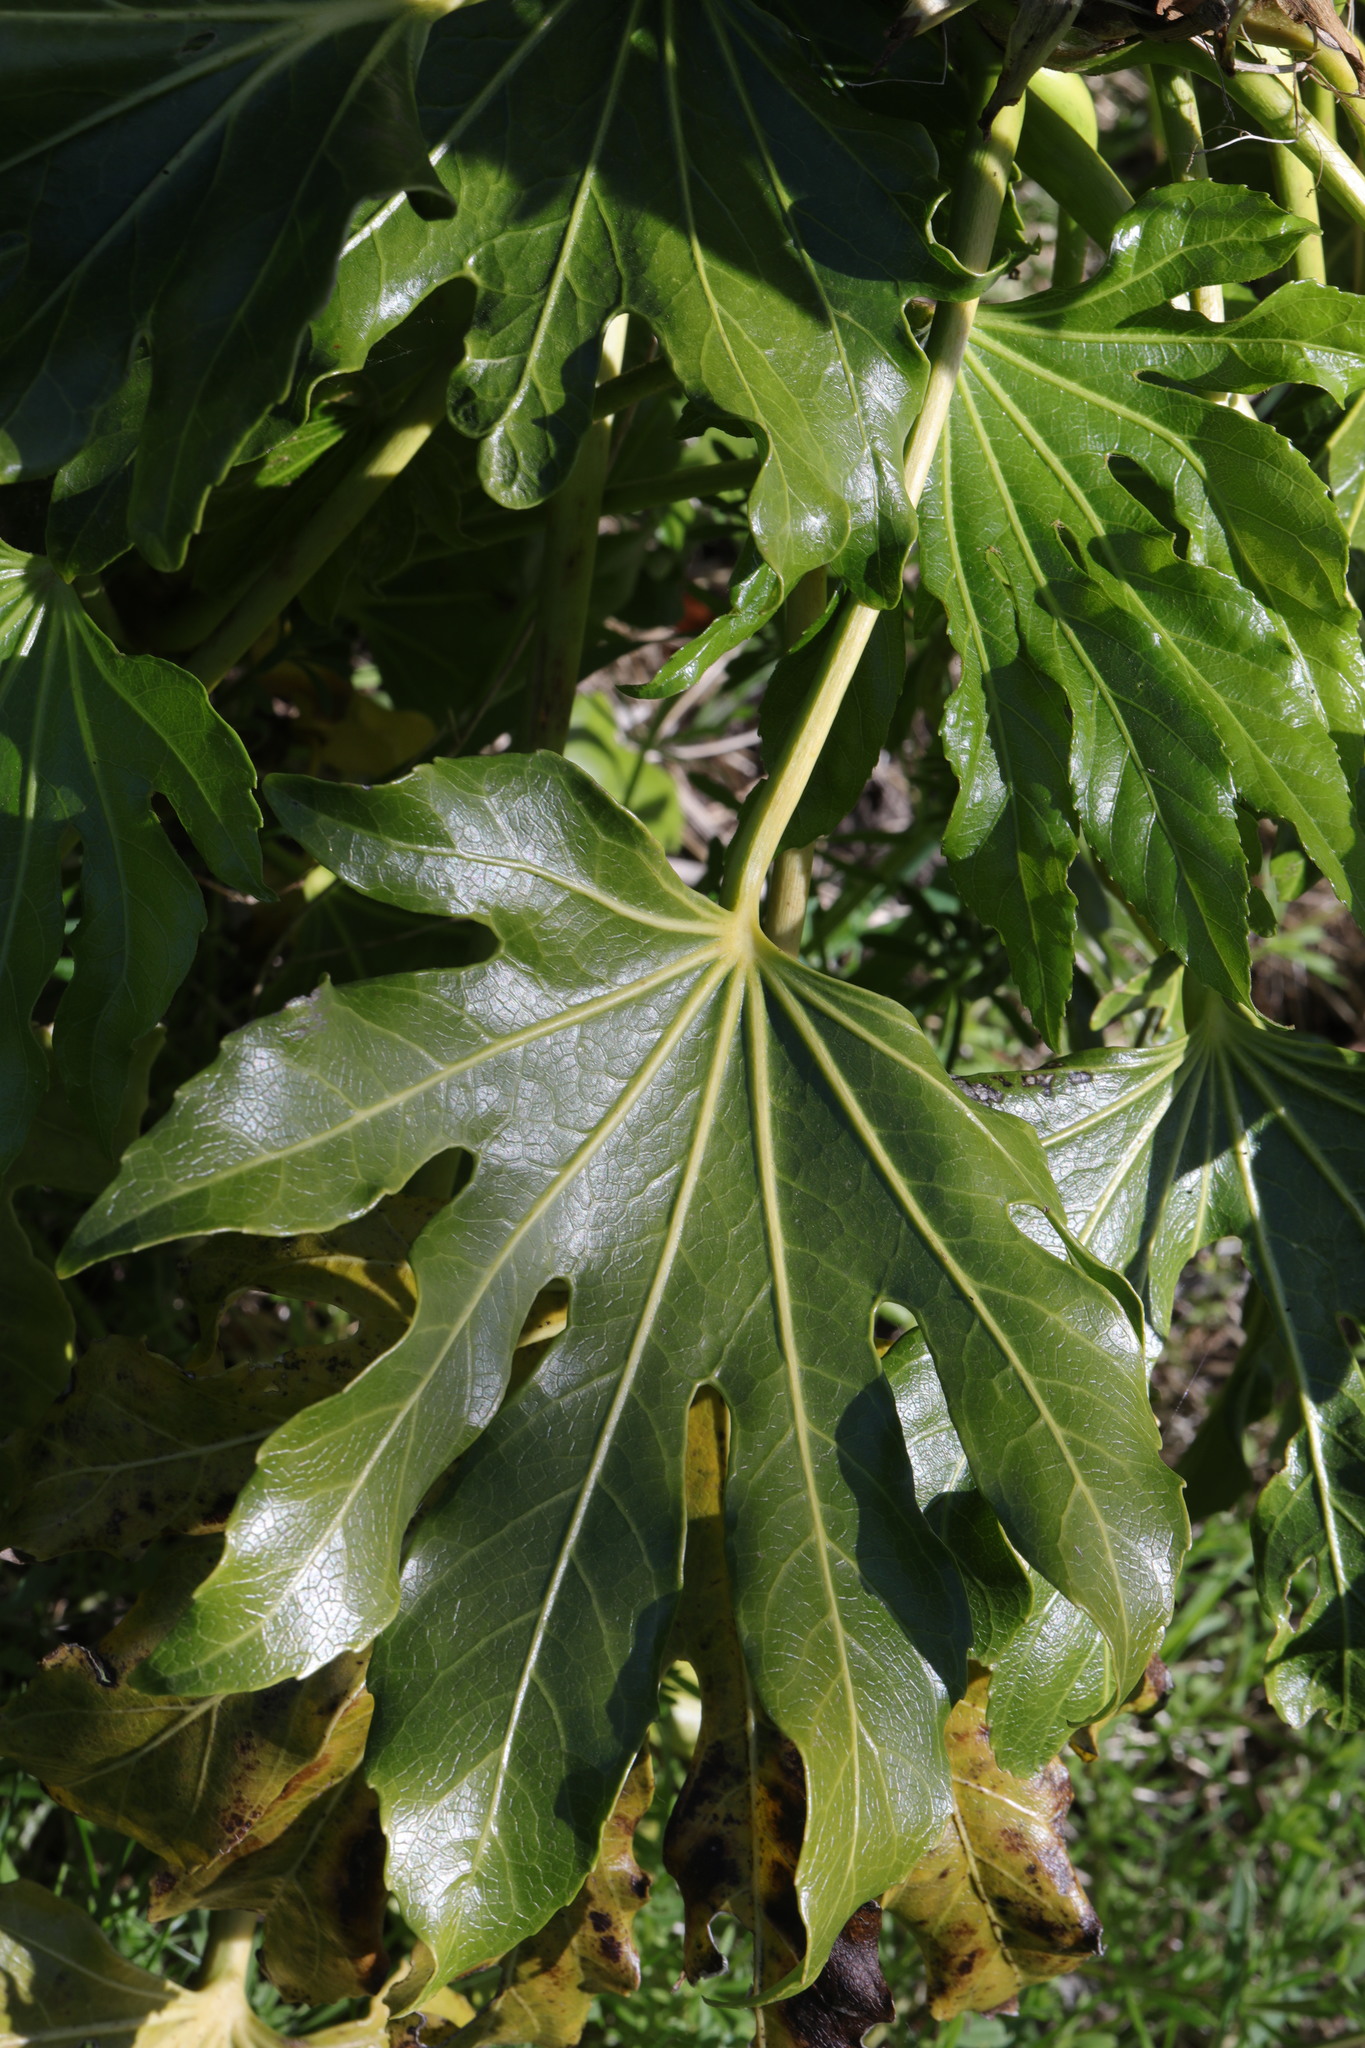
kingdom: Plantae
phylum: Tracheophyta
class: Magnoliopsida
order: Apiales
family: Araliaceae
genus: Fatsia
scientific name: Fatsia japonica
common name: Fatsia
